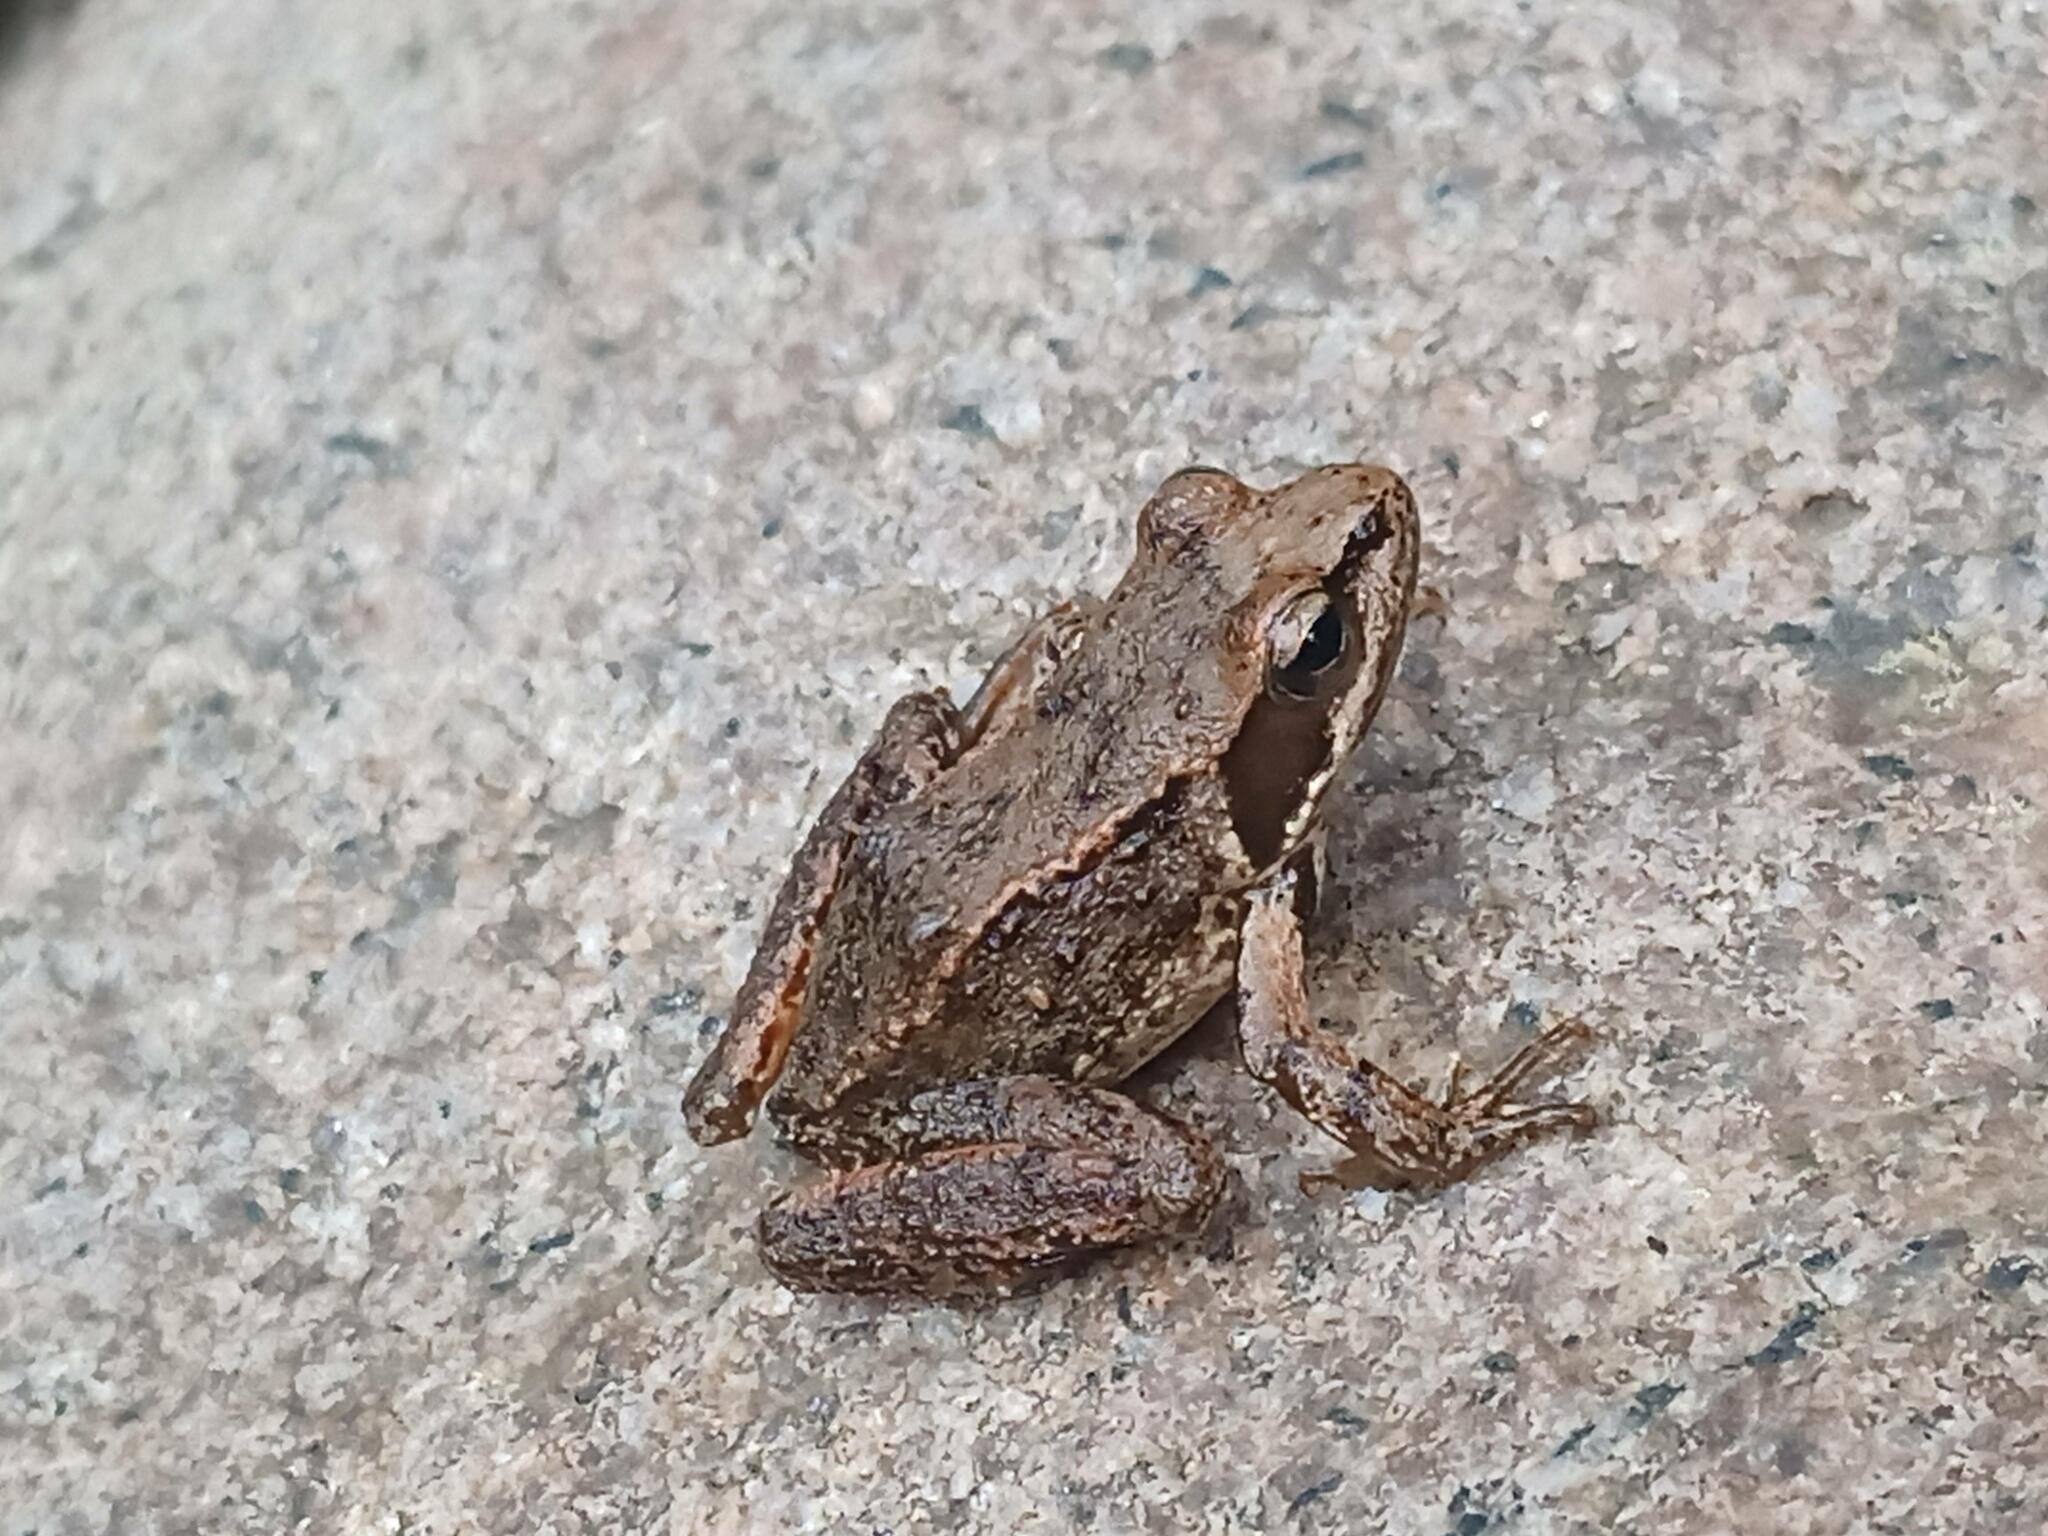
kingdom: Animalia
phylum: Chordata
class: Amphibia
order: Anura
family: Ranidae
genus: Rana
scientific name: Rana iberica
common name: Iberian frog
